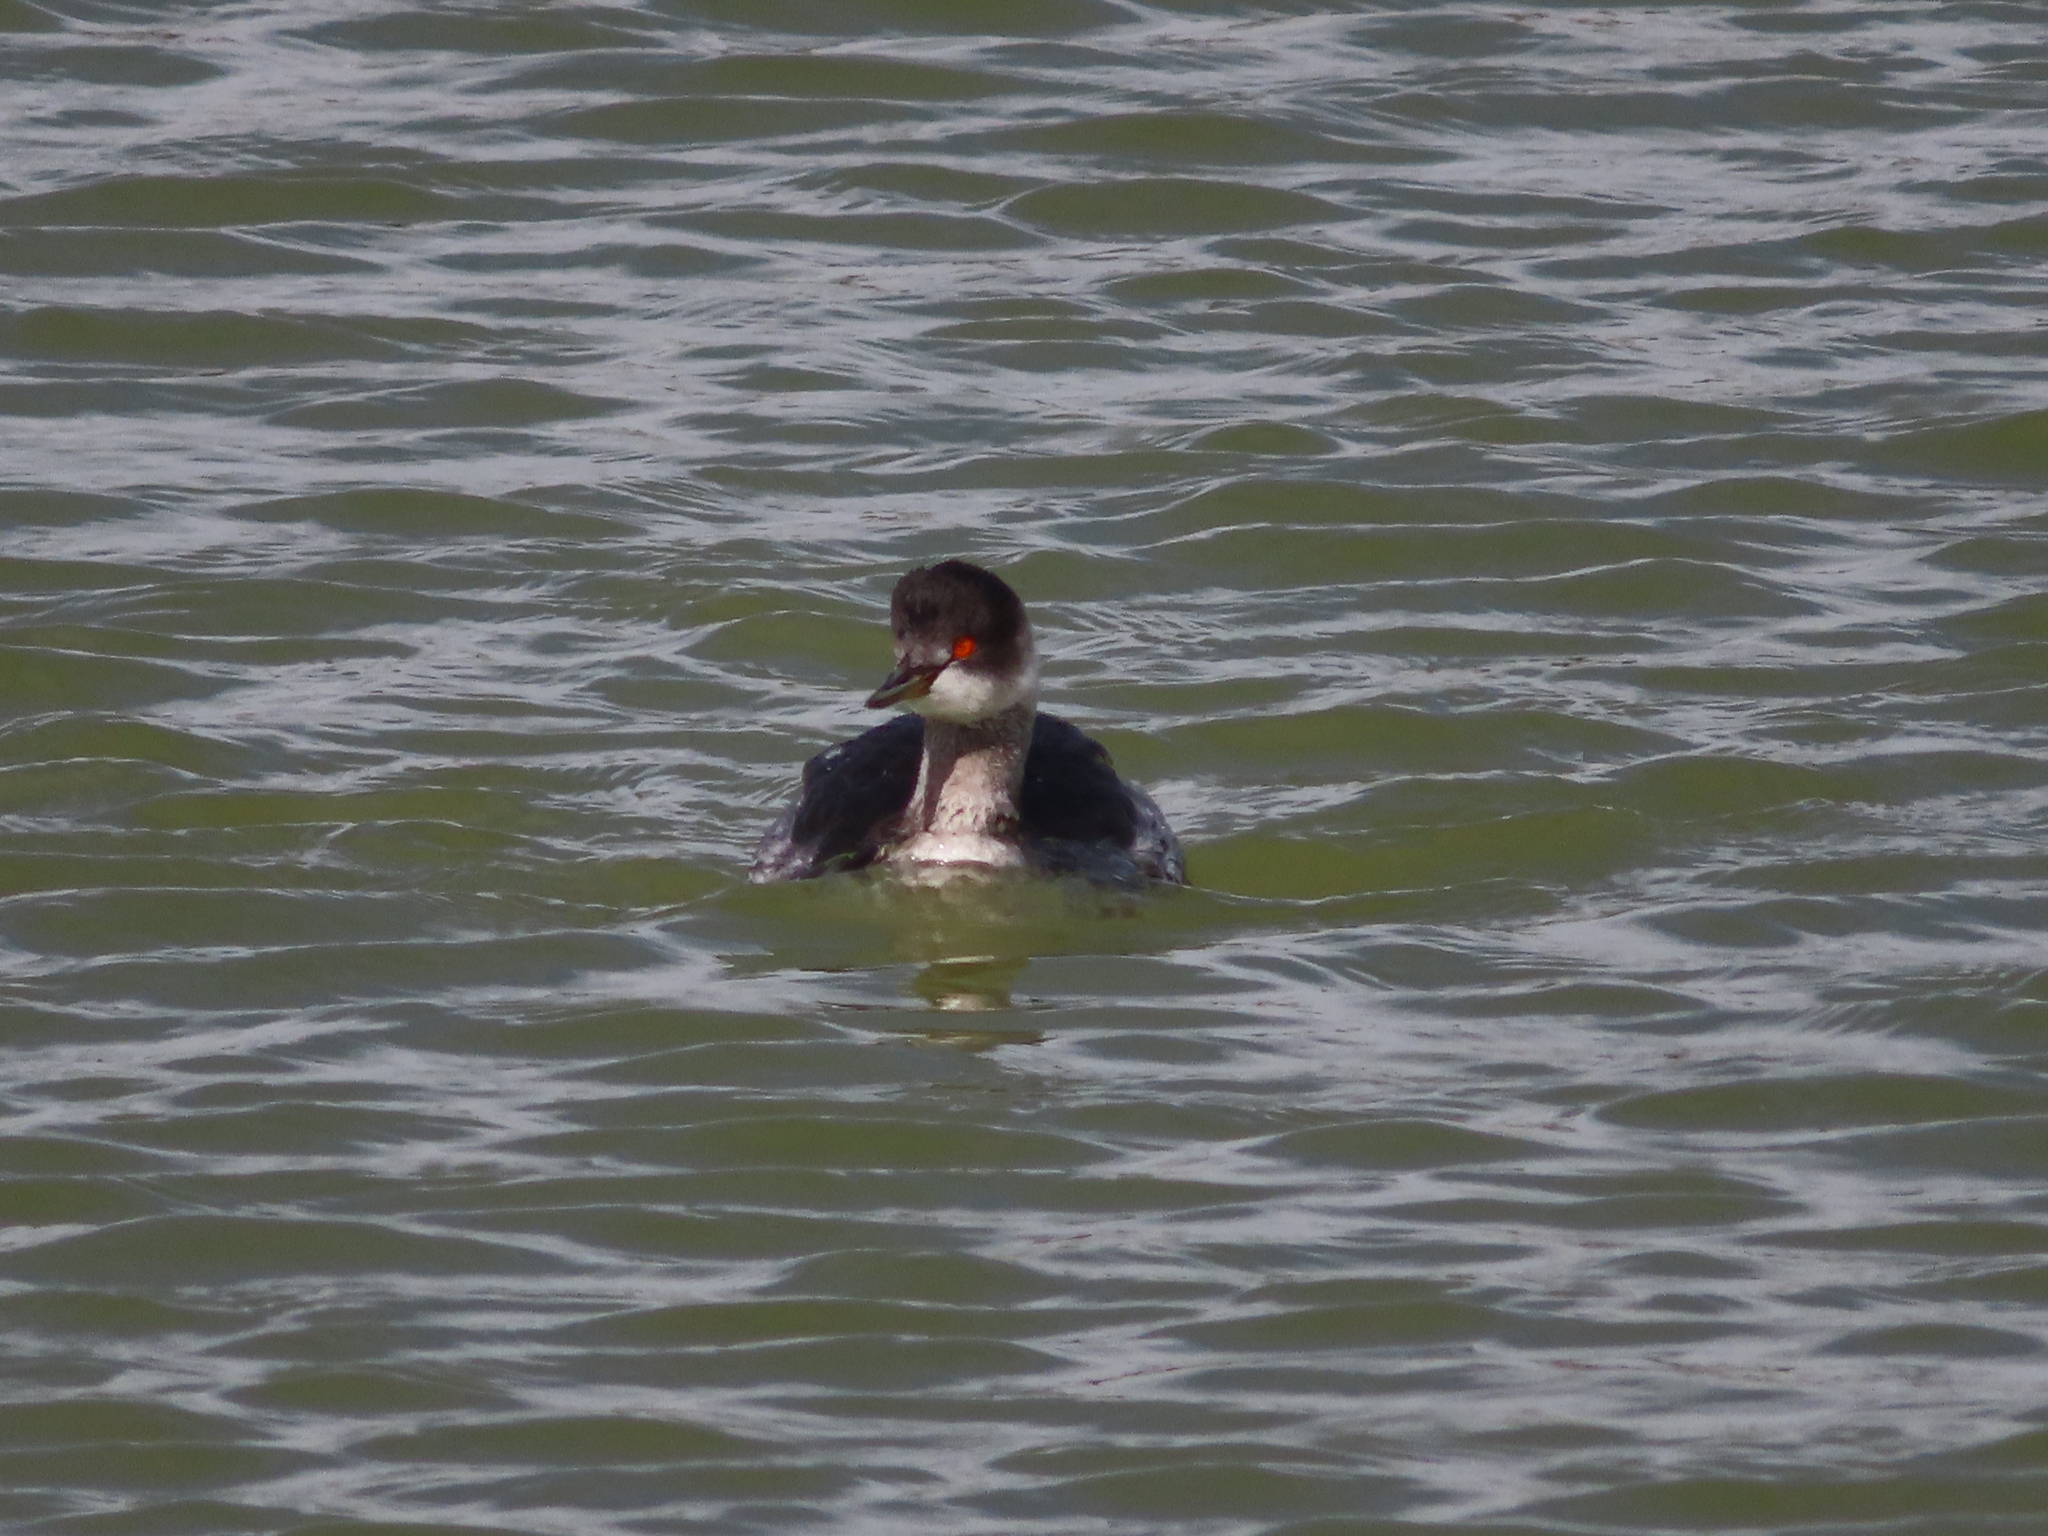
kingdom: Animalia
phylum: Chordata
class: Aves
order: Podicipediformes
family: Podicipedidae
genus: Podiceps
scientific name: Podiceps nigricollis
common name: Black-necked grebe
